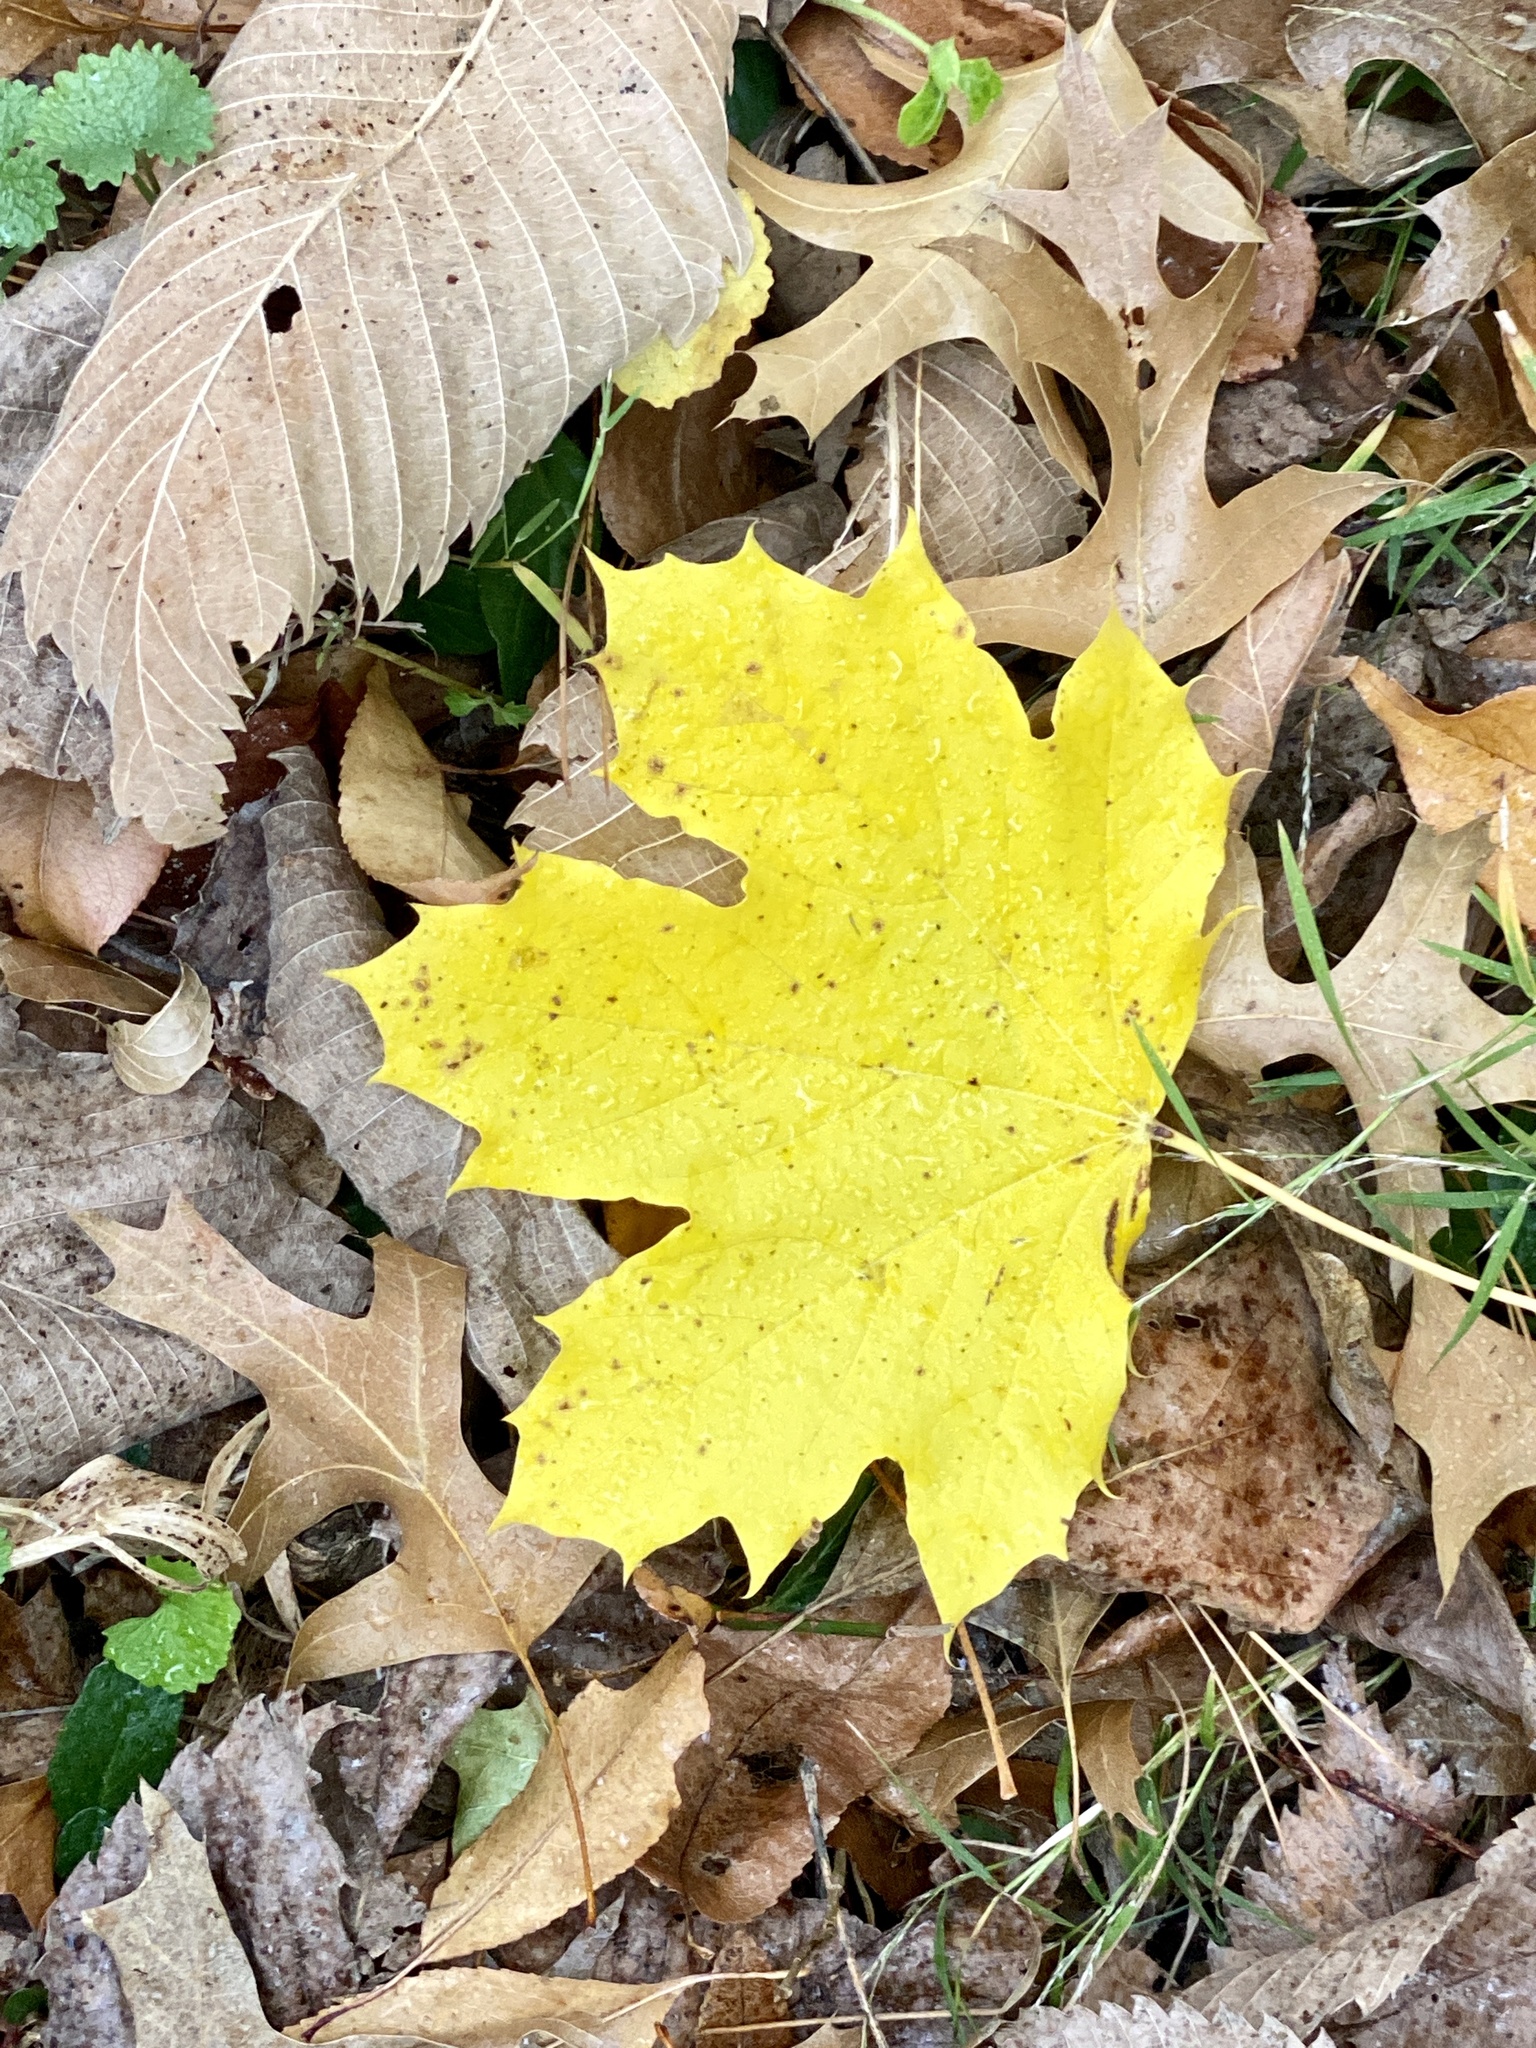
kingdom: Plantae
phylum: Tracheophyta
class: Magnoliopsida
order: Sapindales
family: Sapindaceae
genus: Acer
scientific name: Acer platanoides
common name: Norway maple
